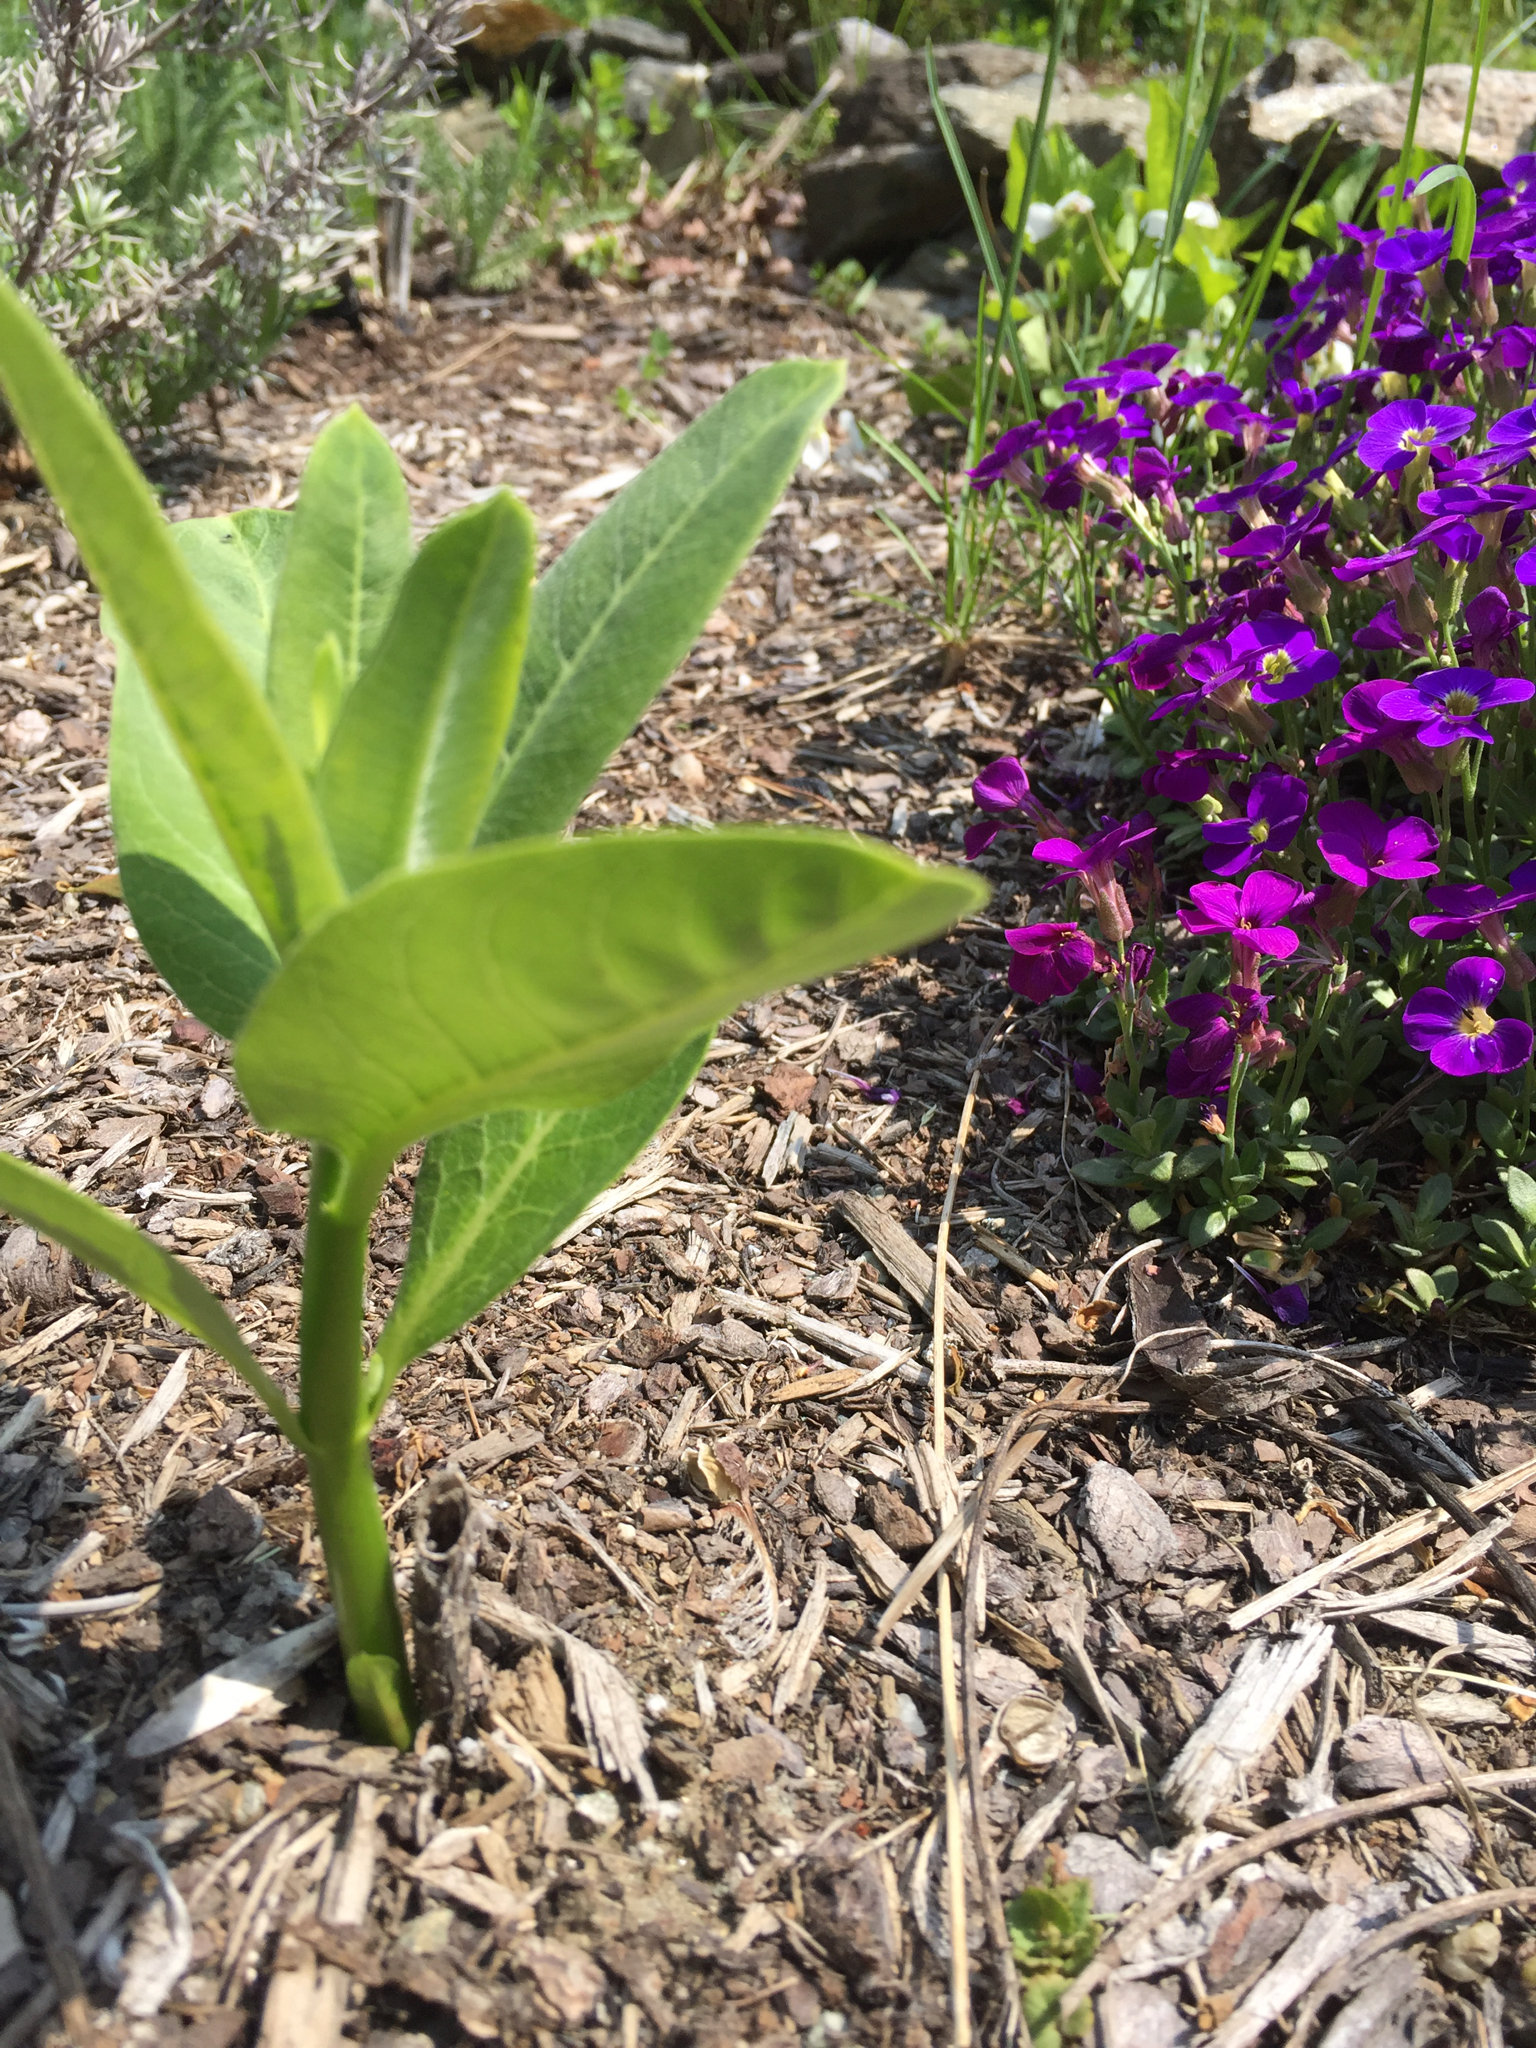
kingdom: Plantae
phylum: Tracheophyta
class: Magnoliopsida
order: Gentianales
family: Apocynaceae
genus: Asclepias
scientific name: Asclepias syriaca
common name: Common milkweed
